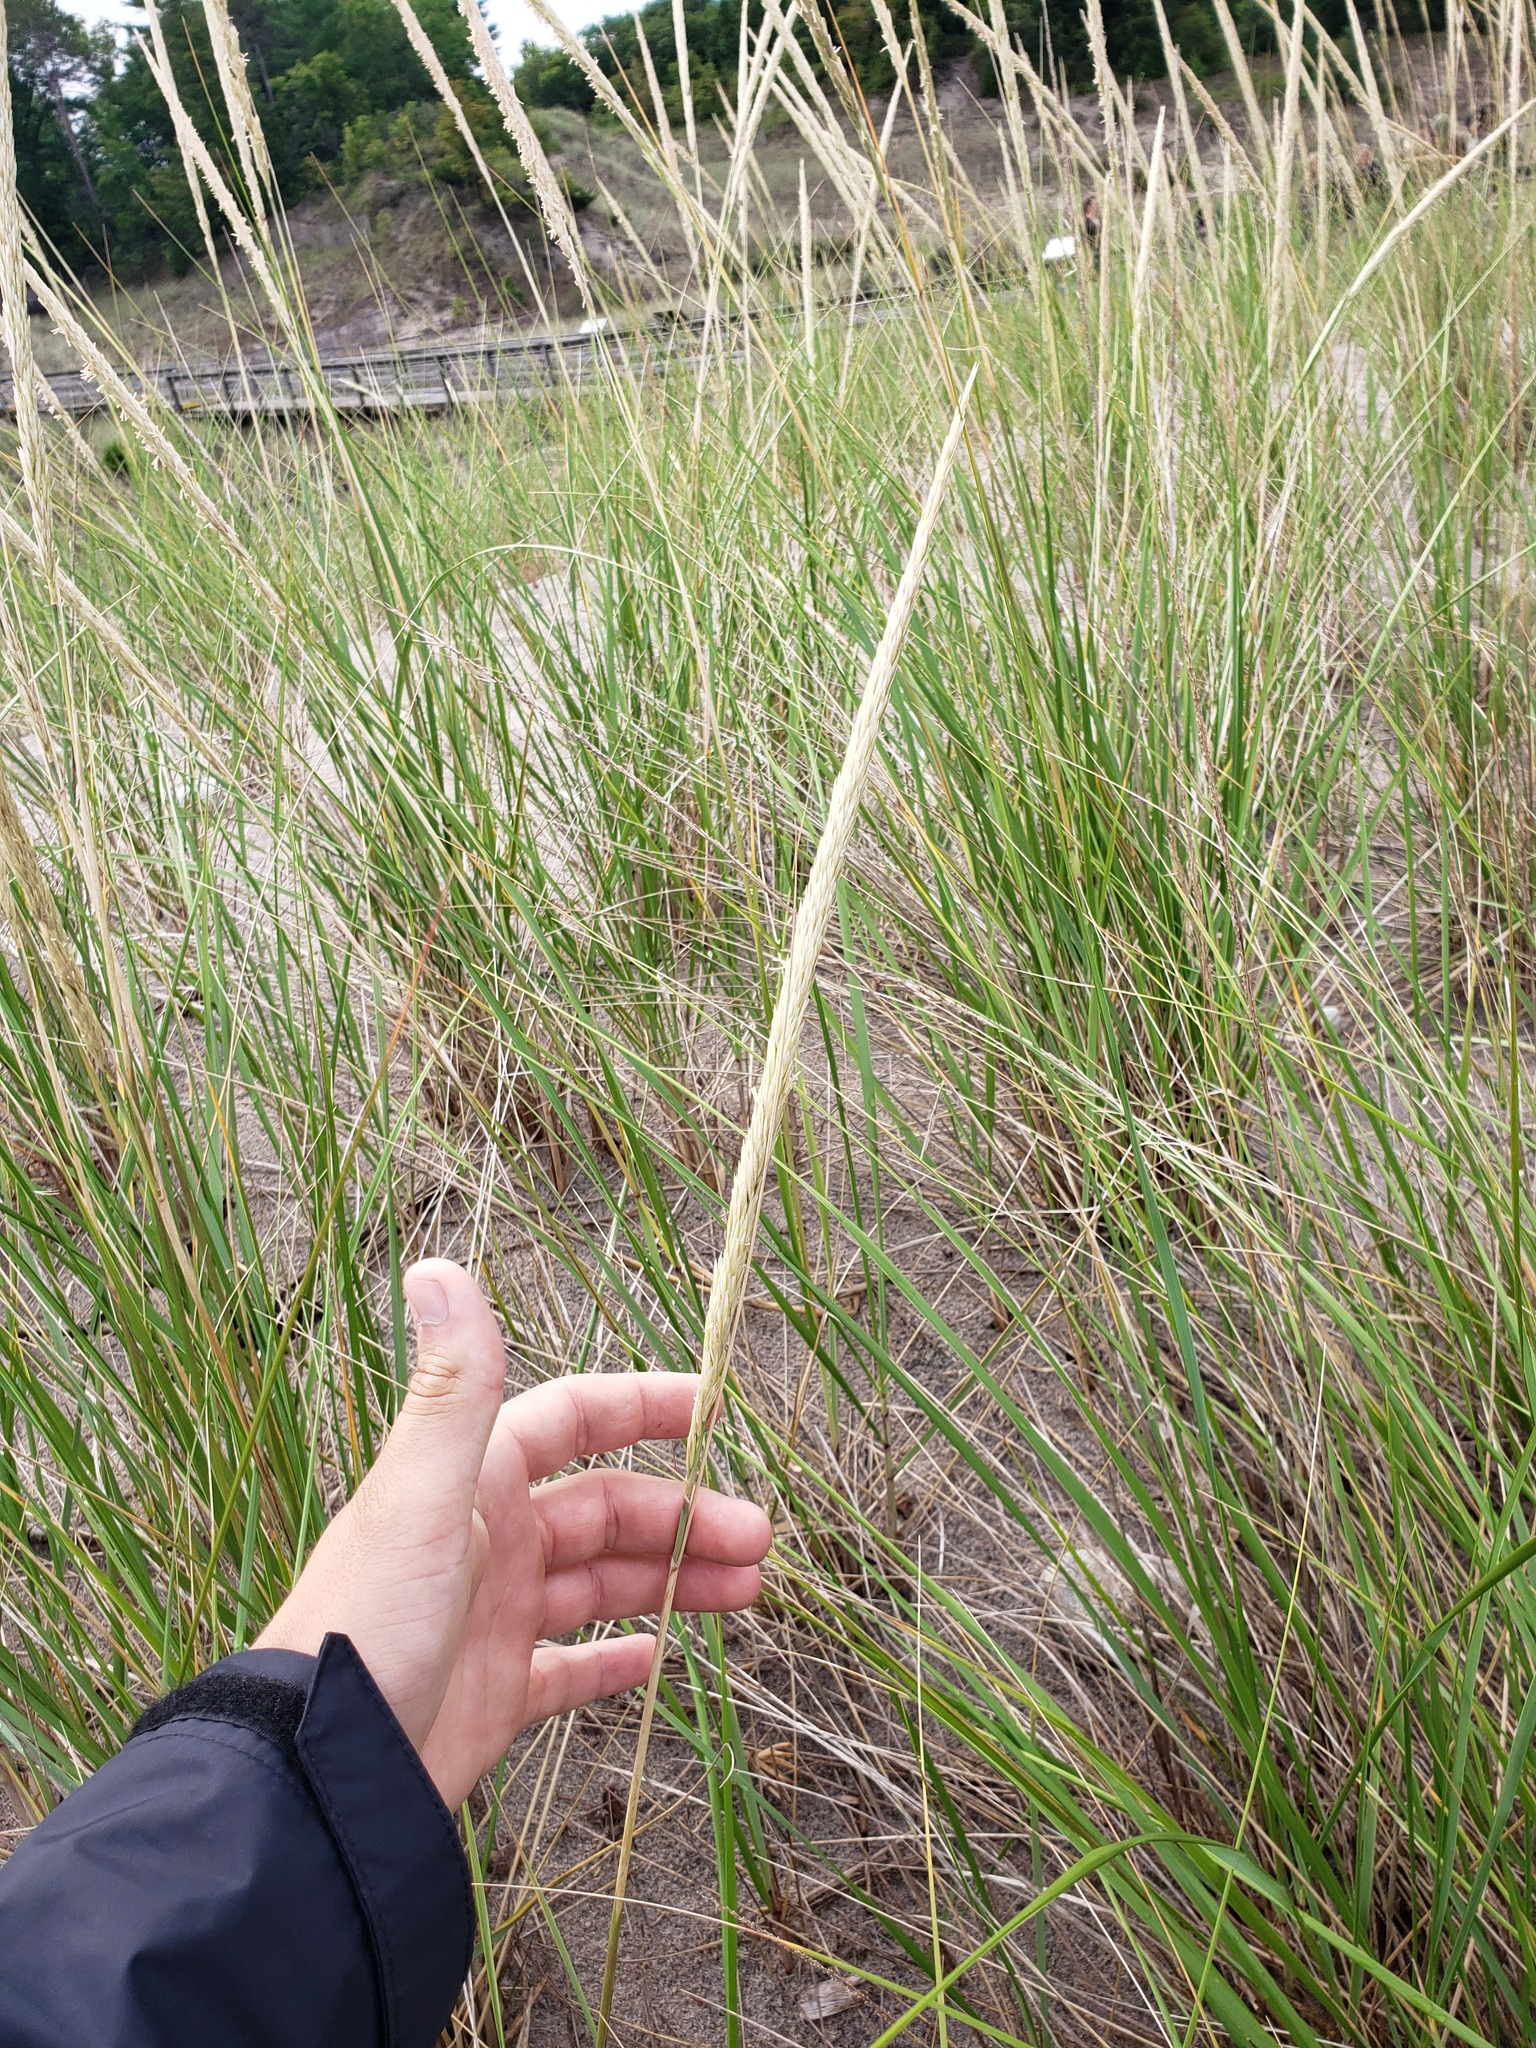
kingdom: Plantae
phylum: Tracheophyta
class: Liliopsida
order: Poales
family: Poaceae
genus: Calamagrostis
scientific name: Calamagrostis breviligulata
